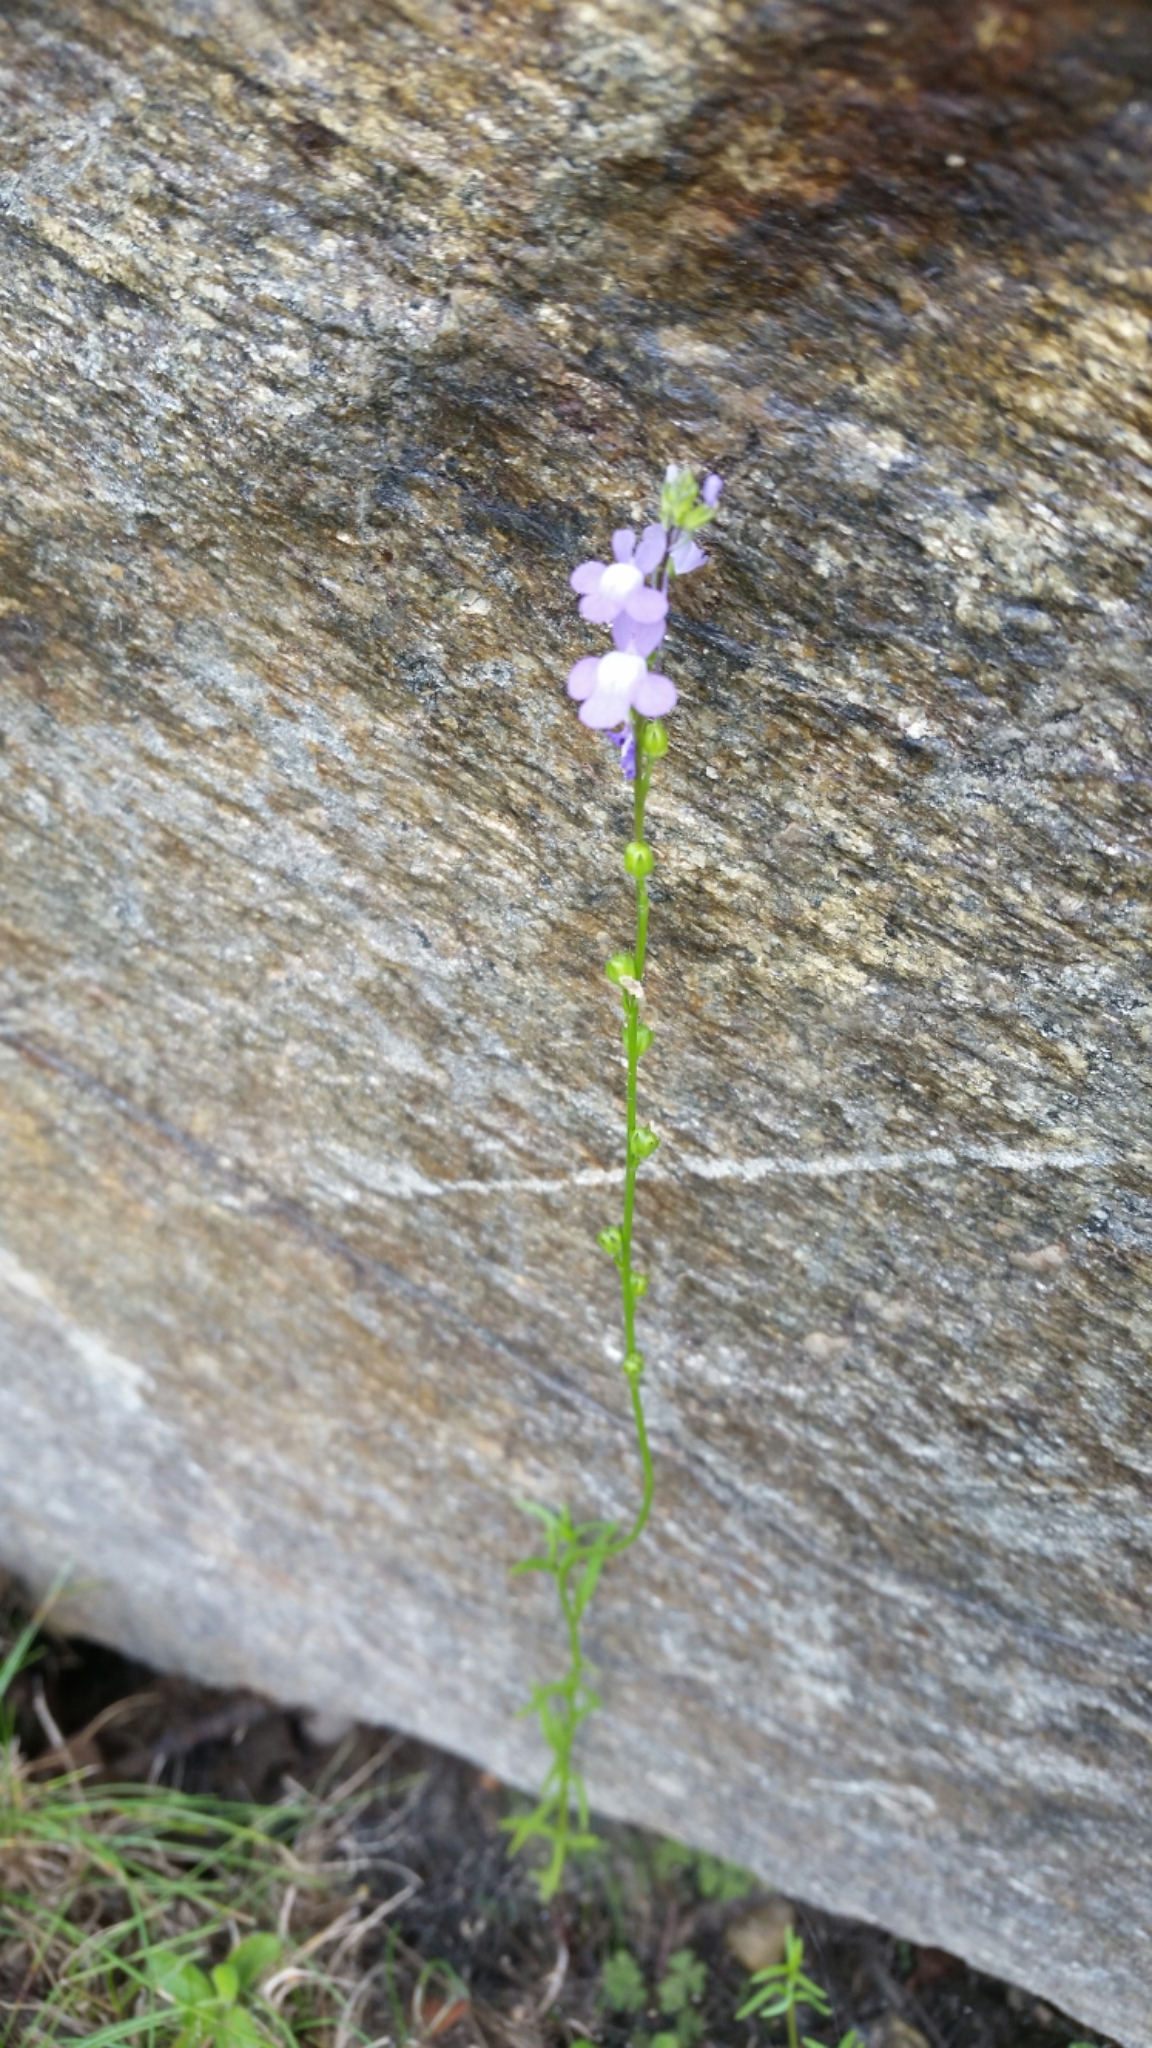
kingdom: Plantae
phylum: Tracheophyta
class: Magnoliopsida
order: Lamiales
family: Plantaginaceae
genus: Nuttallanthus
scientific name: Nuttallanthus canadensis
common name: Blue toadflax
